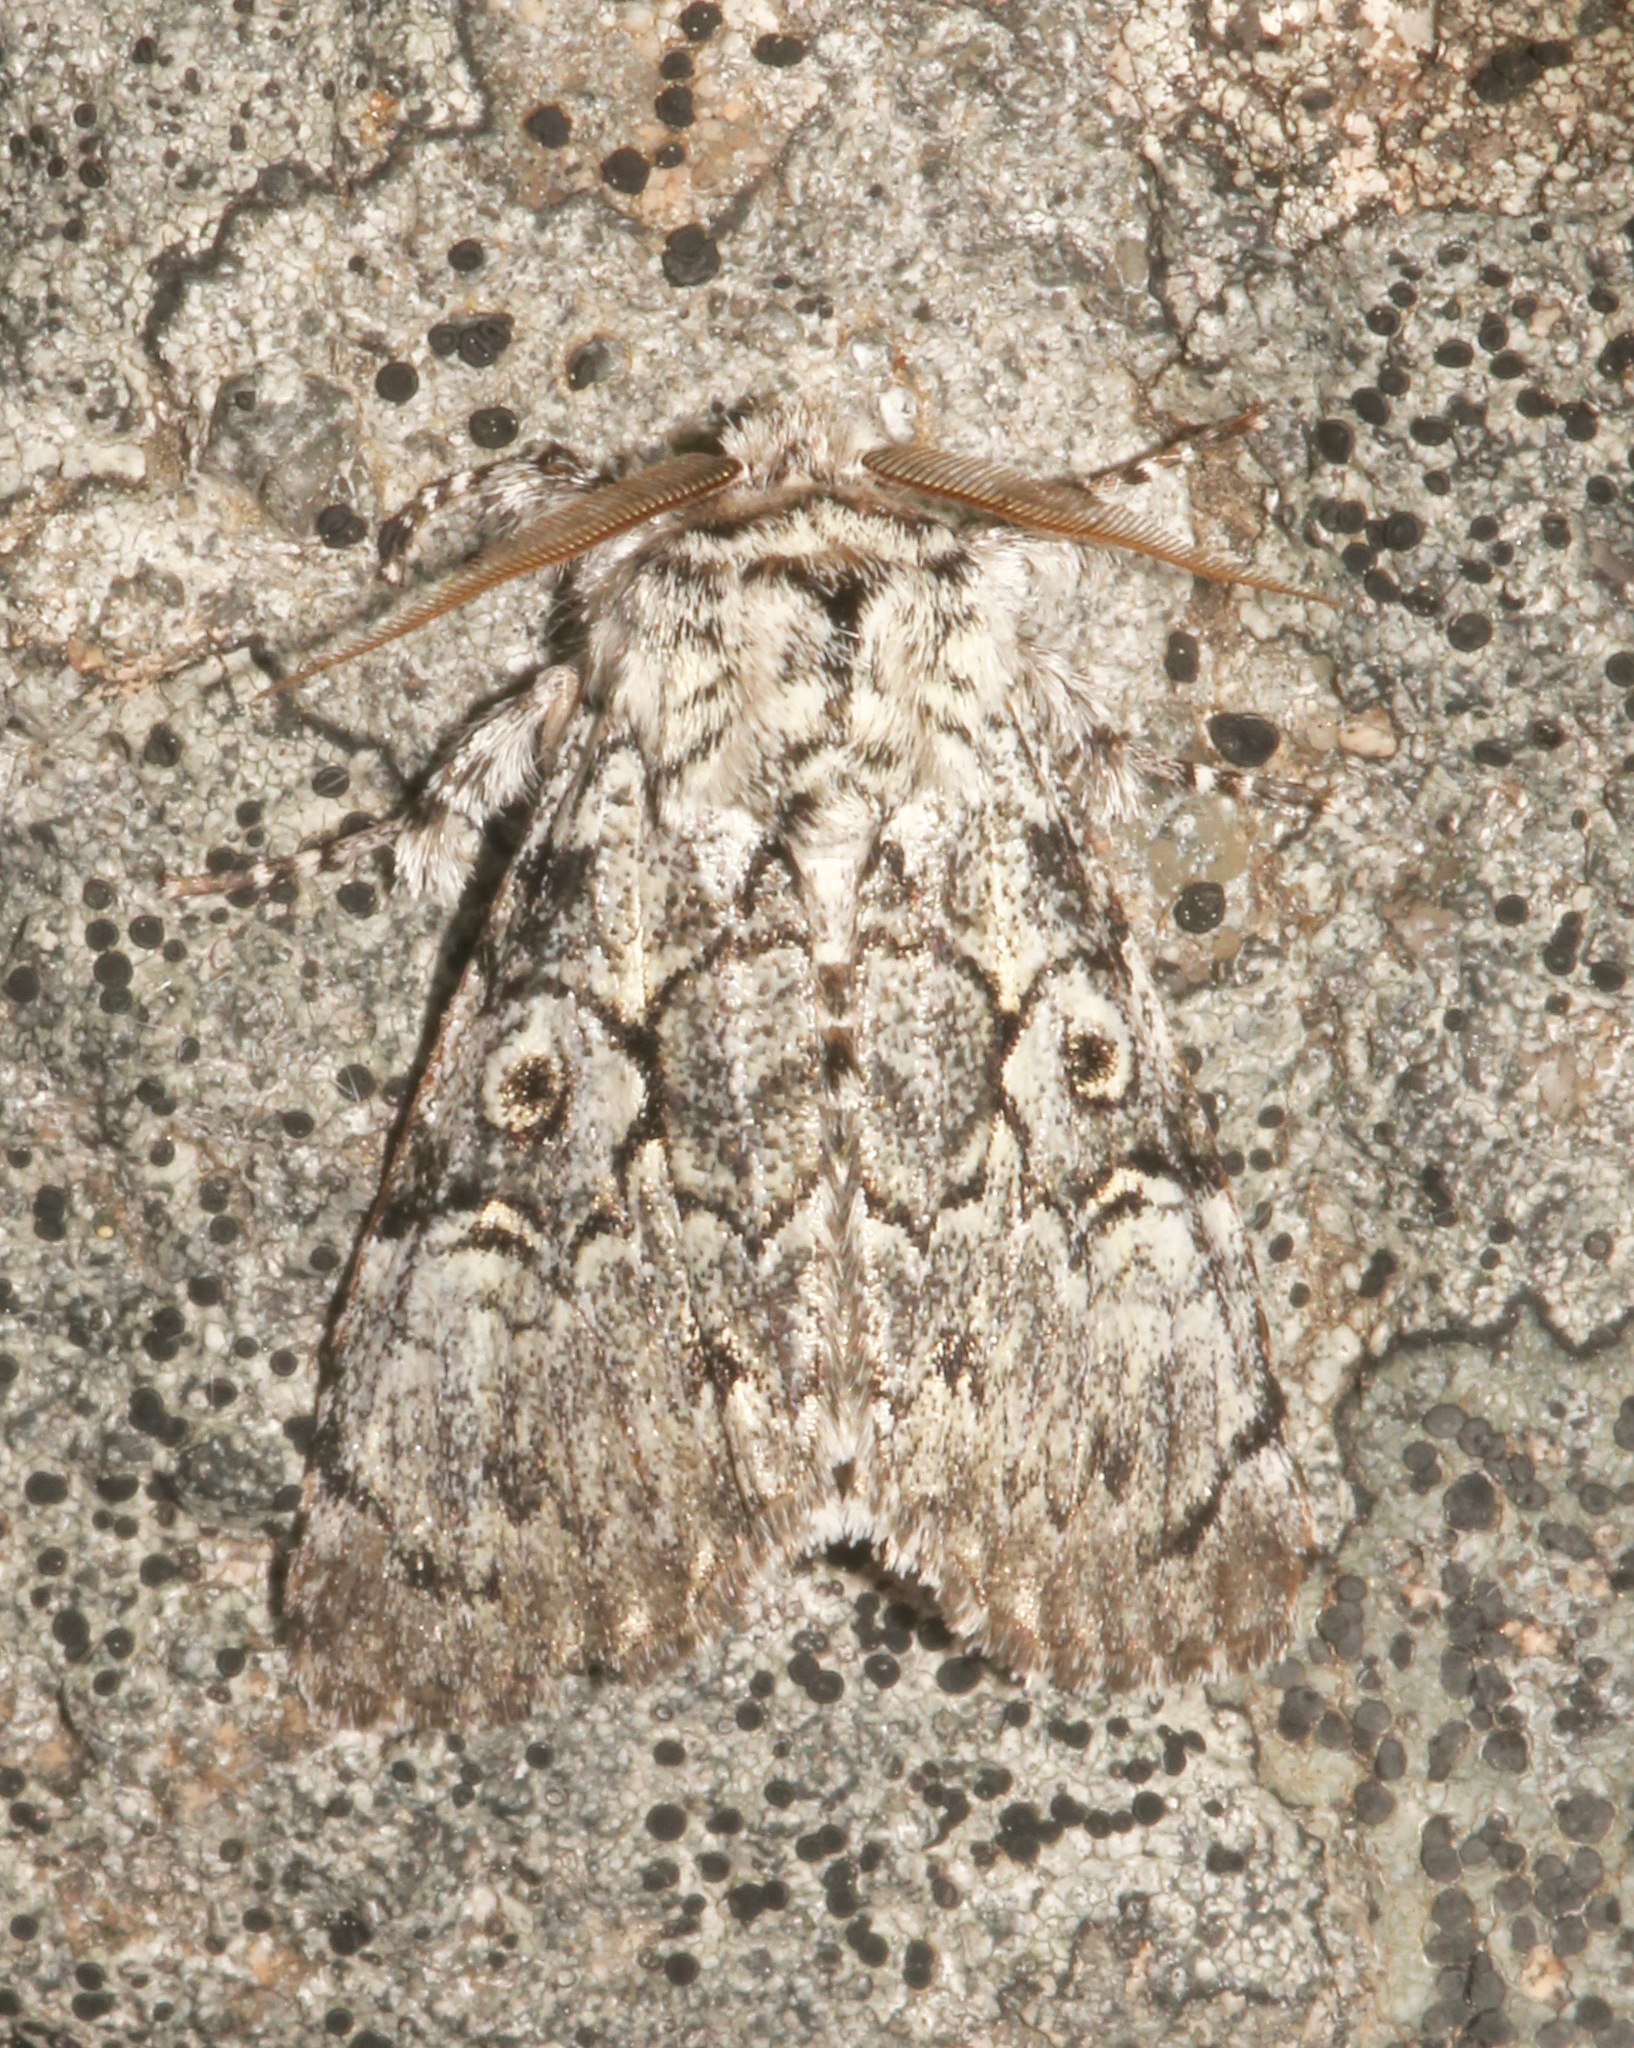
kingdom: Animalia
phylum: Arthropoda
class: Insecta
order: Lepidoptera
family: Noctuidae
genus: Charadra
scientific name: Charadra deridens
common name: Marbled tuffet
